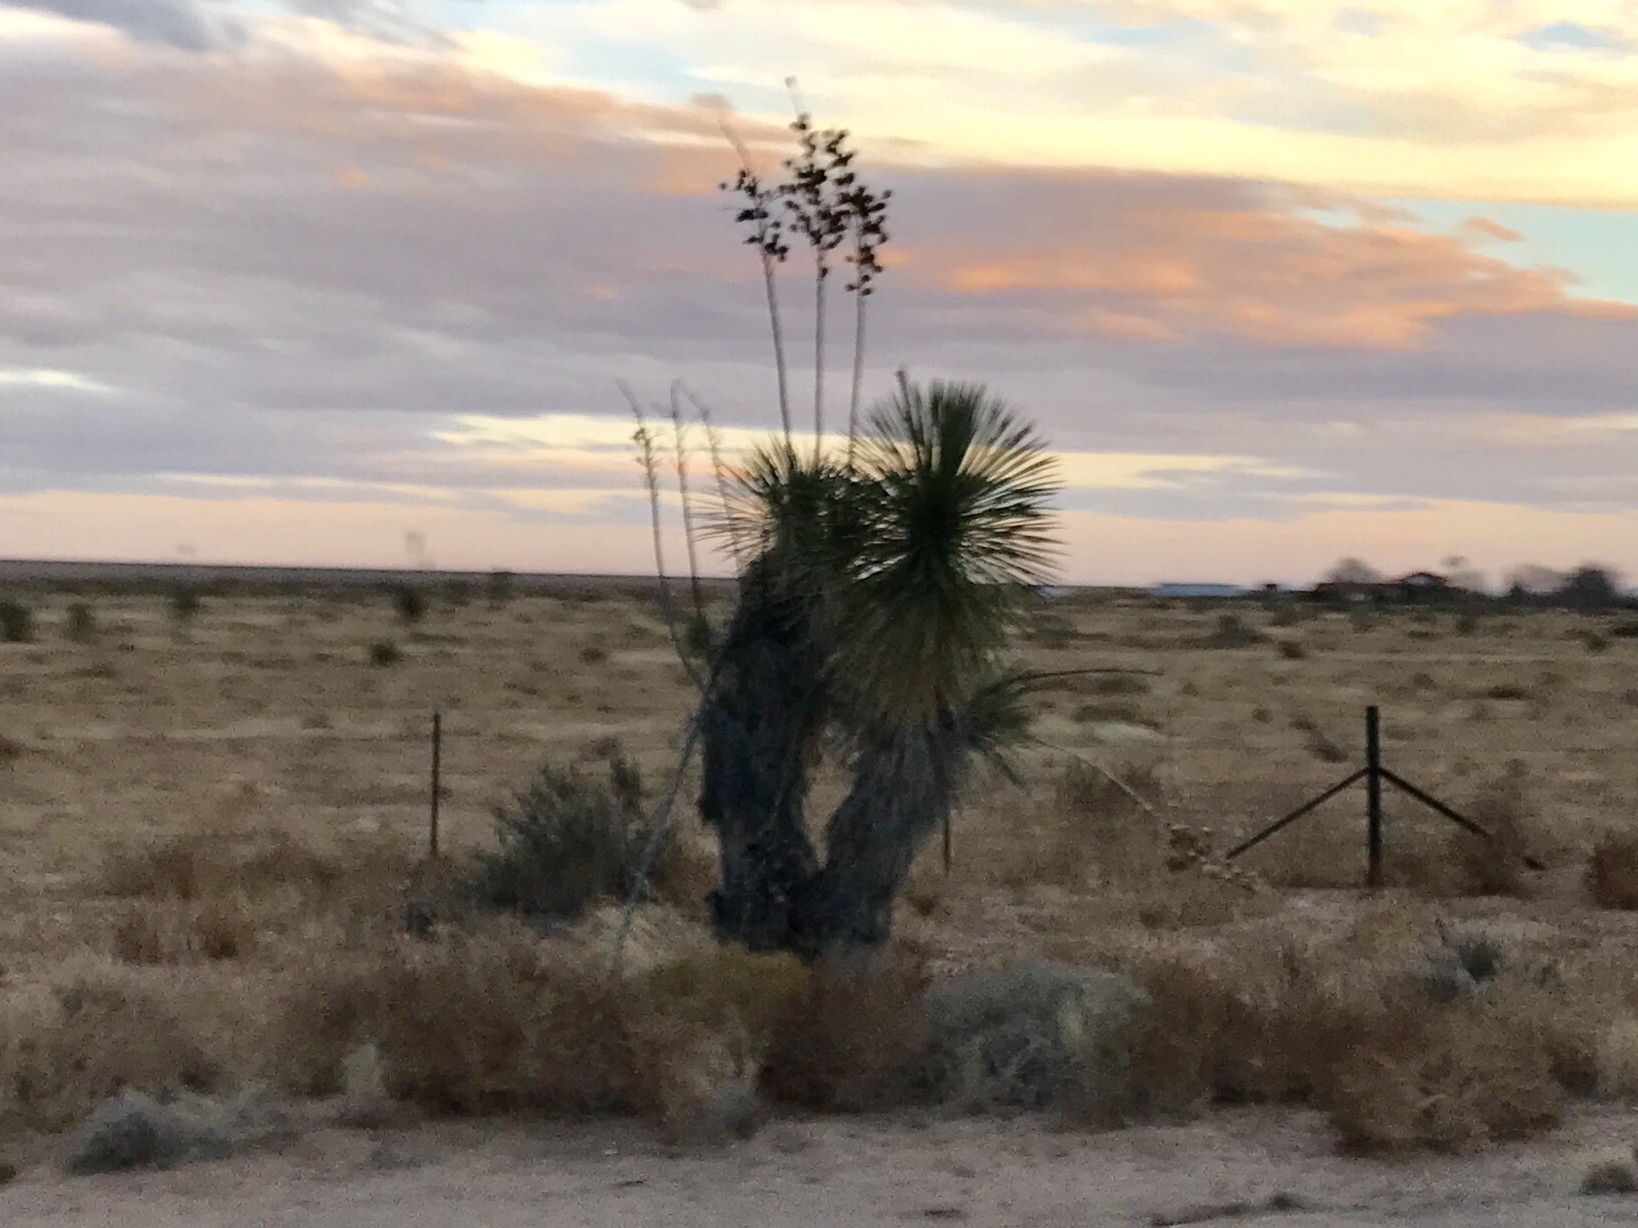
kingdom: Plantae
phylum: Tracheophyta
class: Liliopsida
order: Asparagales
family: Asparagaceae
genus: Yucca
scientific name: Yucca elata
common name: Palmella
